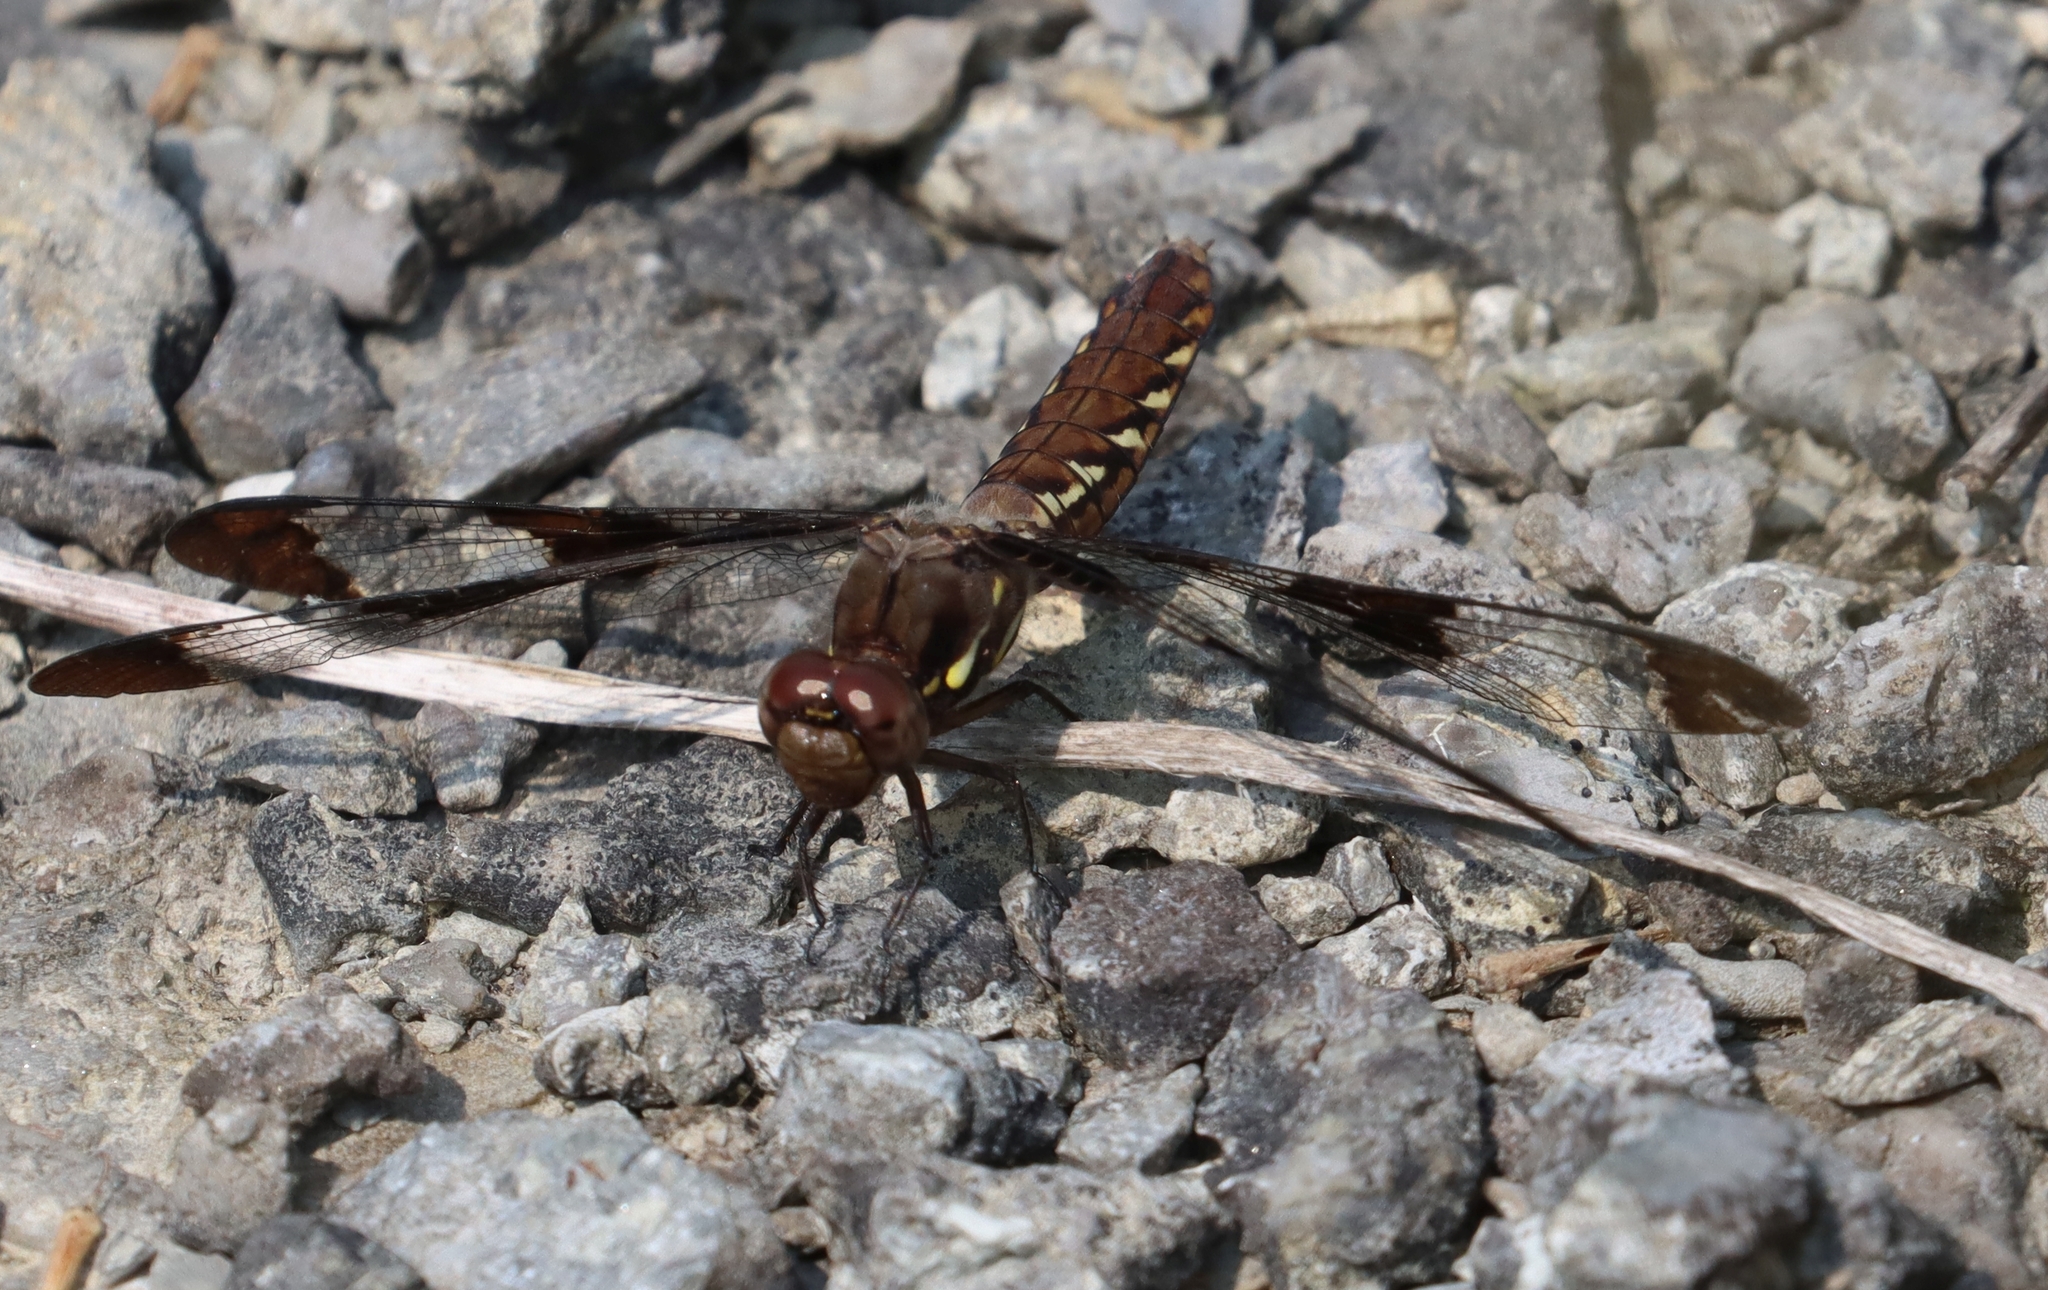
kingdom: Animalia
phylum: Arthropoda
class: Insecta
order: Odonata
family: Libellulidae
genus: Plathemis
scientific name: Plathemis lydia
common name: Common whitetail
